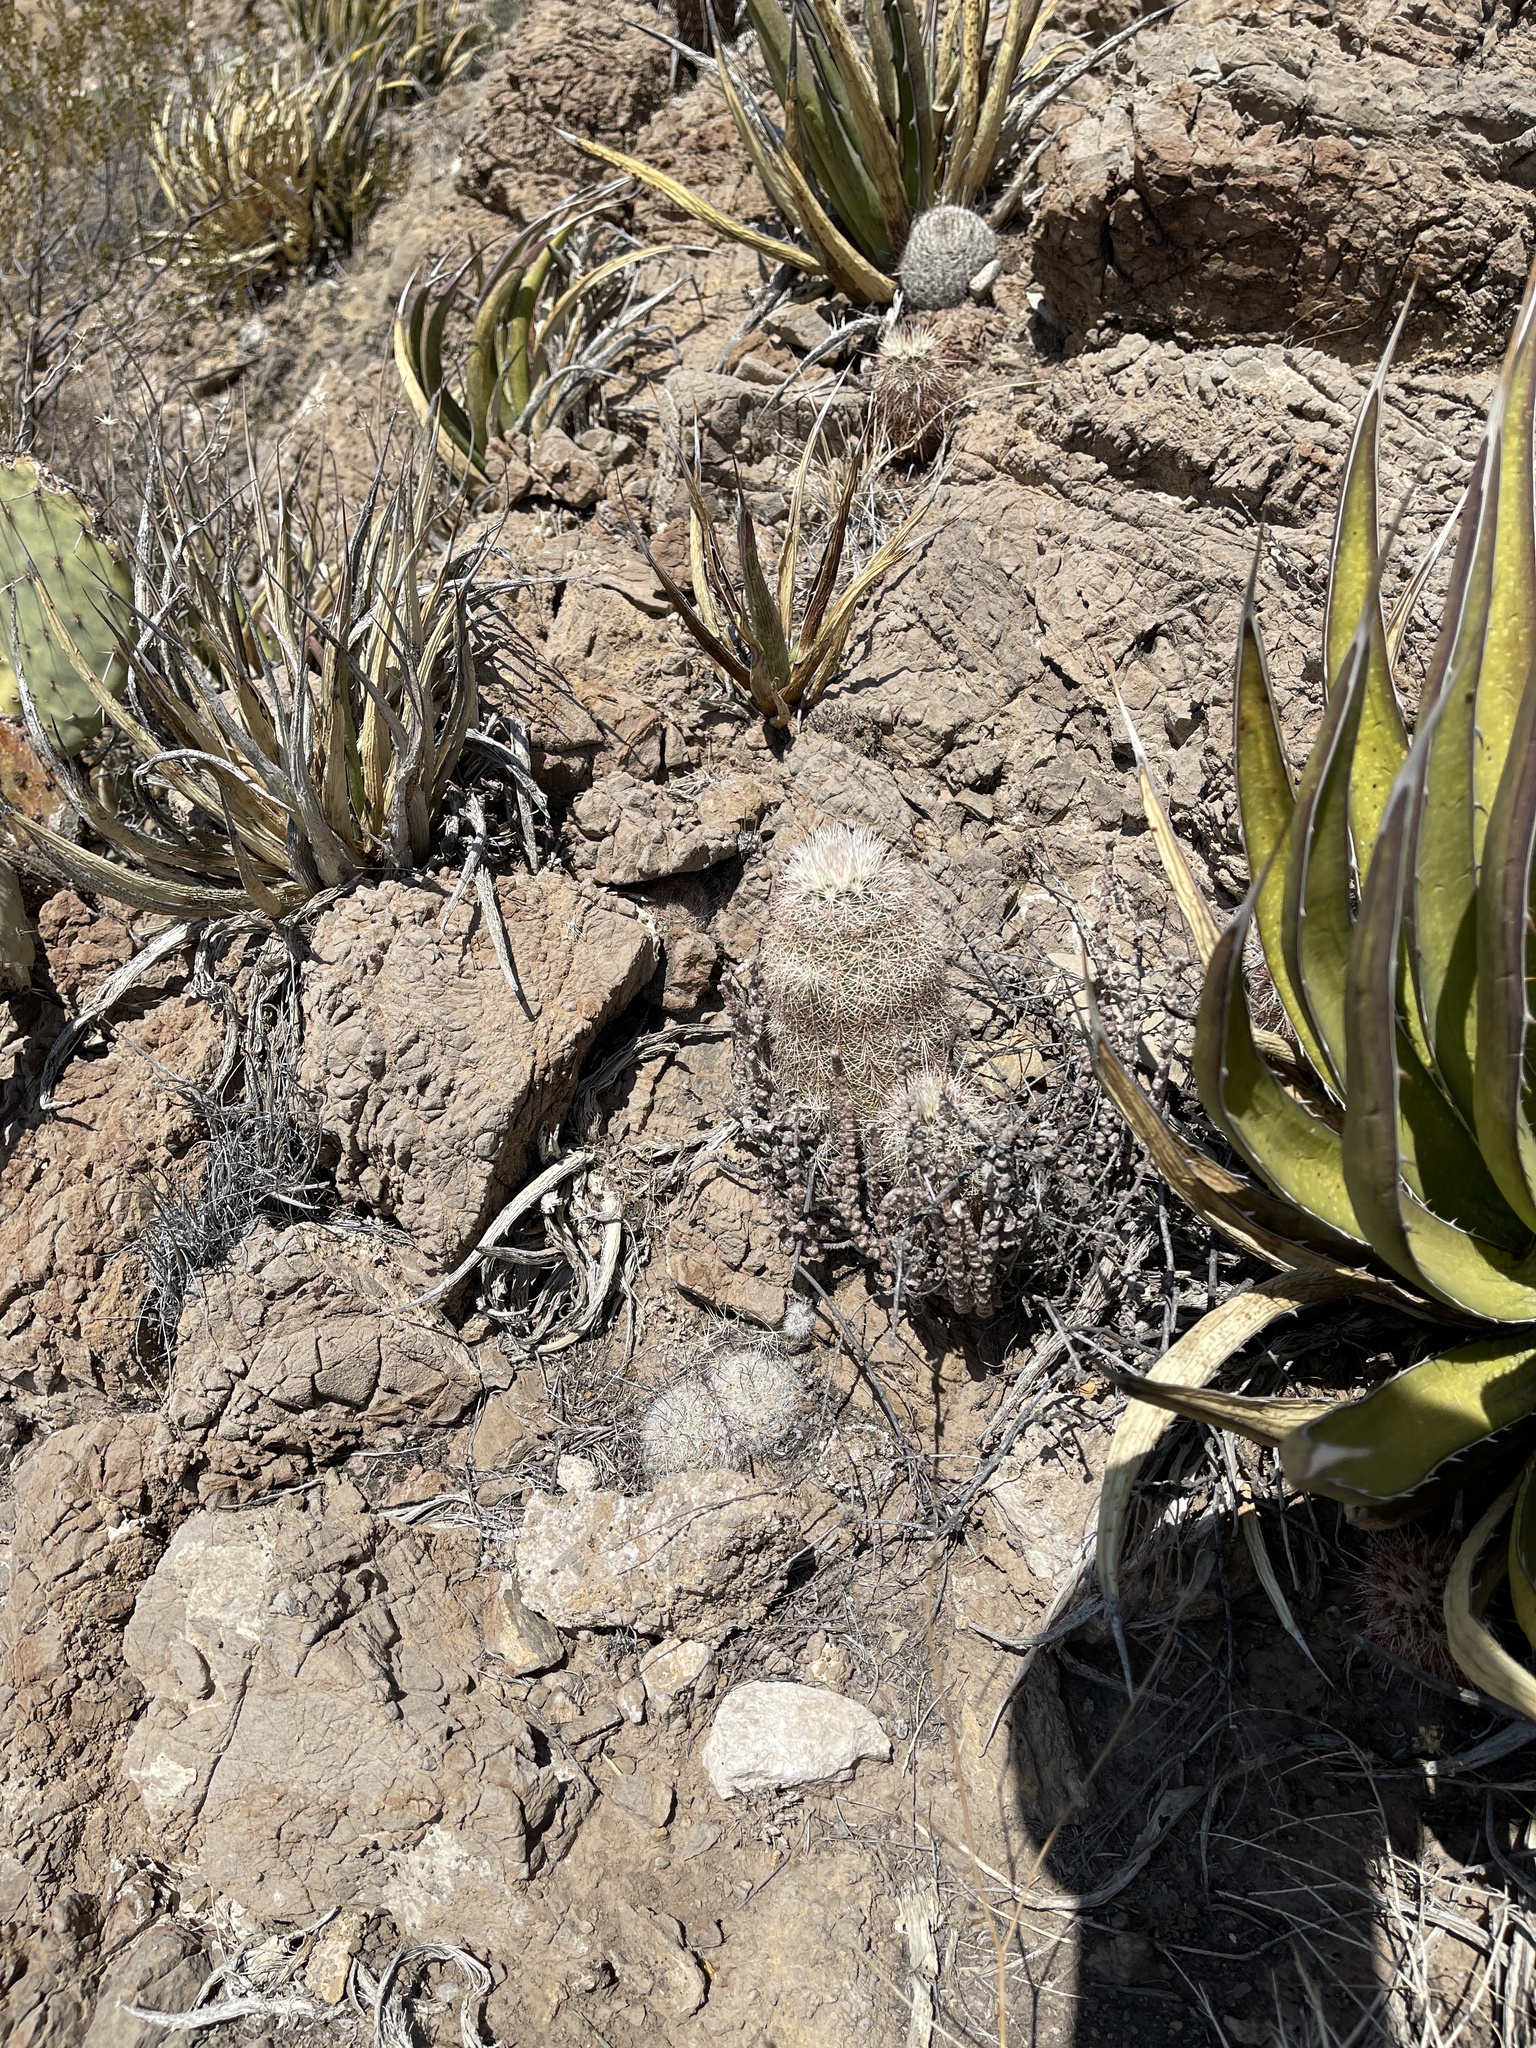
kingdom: Plantae
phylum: Tracheophyta
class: Magnoliopsida
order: Caryophyllales
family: Cactaceae
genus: Echinocereus
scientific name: Echinocereus dasyacanthus
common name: Spiny hedgehog cactus
